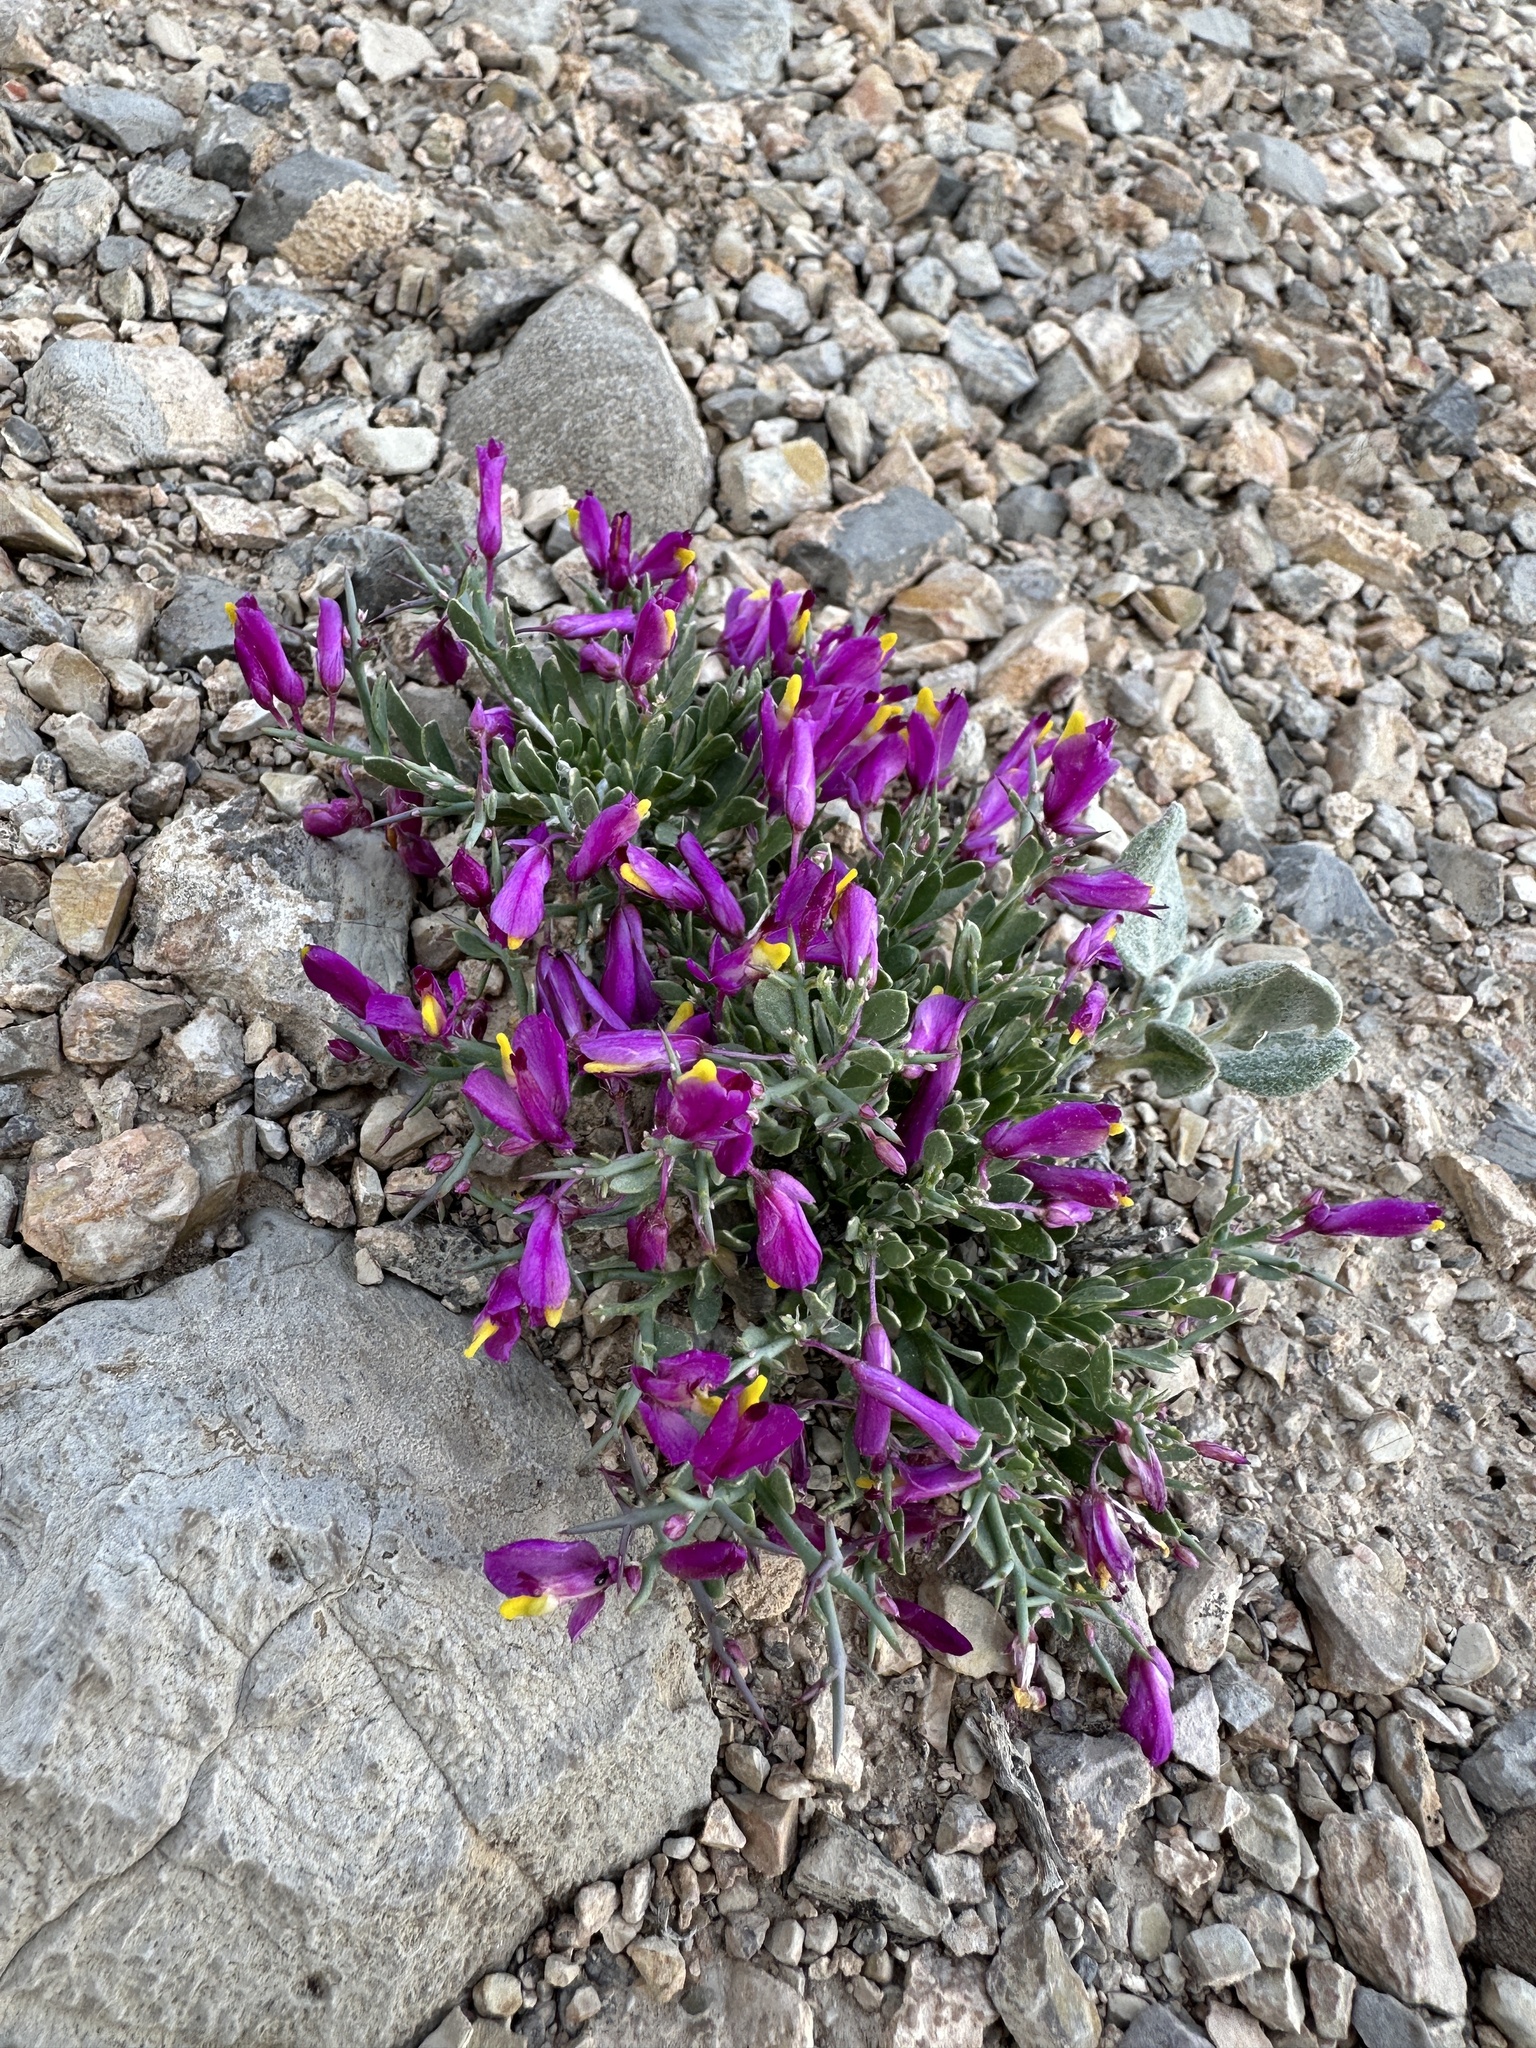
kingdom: Plantae
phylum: Tracheophyta
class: Magnoliopsida
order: Fabales
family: Polygalaceae
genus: Rhinotropis
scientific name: Rhinotropis subspinosa
